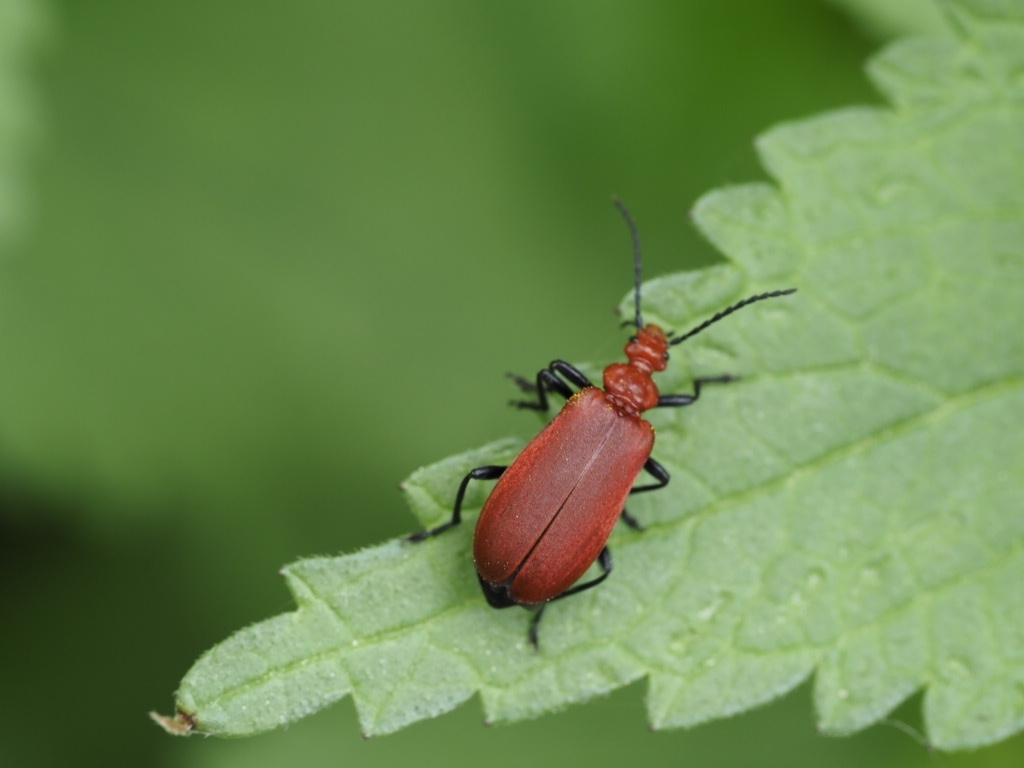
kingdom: Animalia
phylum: Arthropoda
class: Insecta
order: Coleoptera
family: Pyrochroidae
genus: Pyrochroa
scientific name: Pyrochroa serraticornis
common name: Red-headed cardinal beetle
